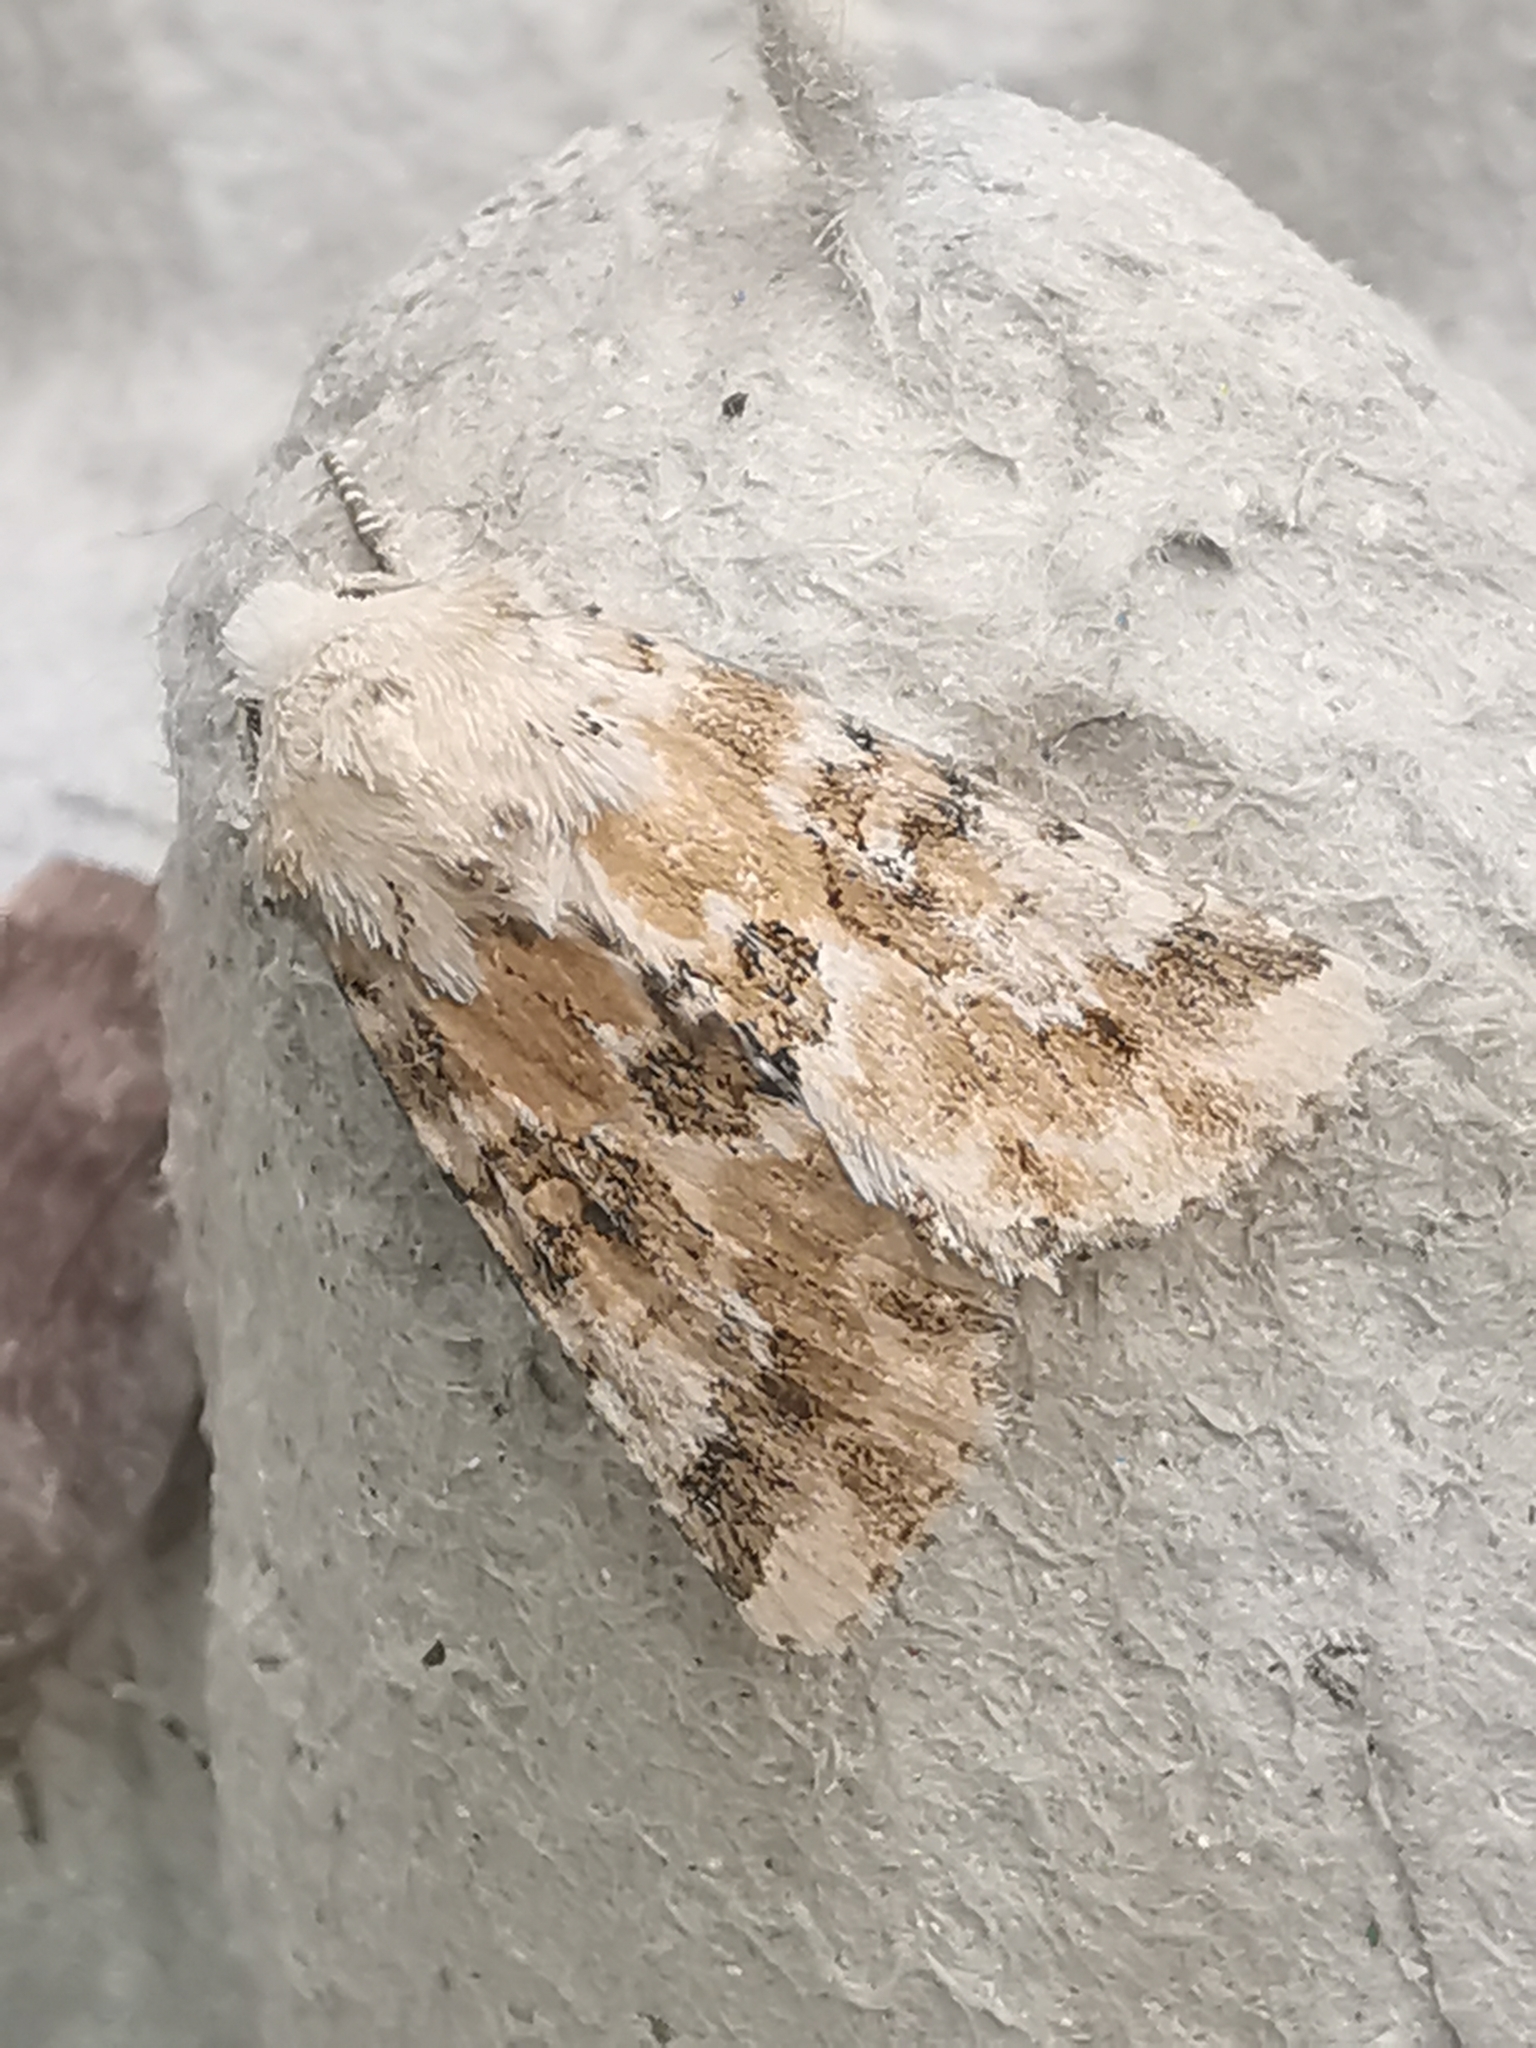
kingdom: Animalia
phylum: Arthropoda
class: Insecta
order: Lepidoptera
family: Noctuidae
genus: Eremobia
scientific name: Eremobia ochroleuca
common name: Dusky sallow
